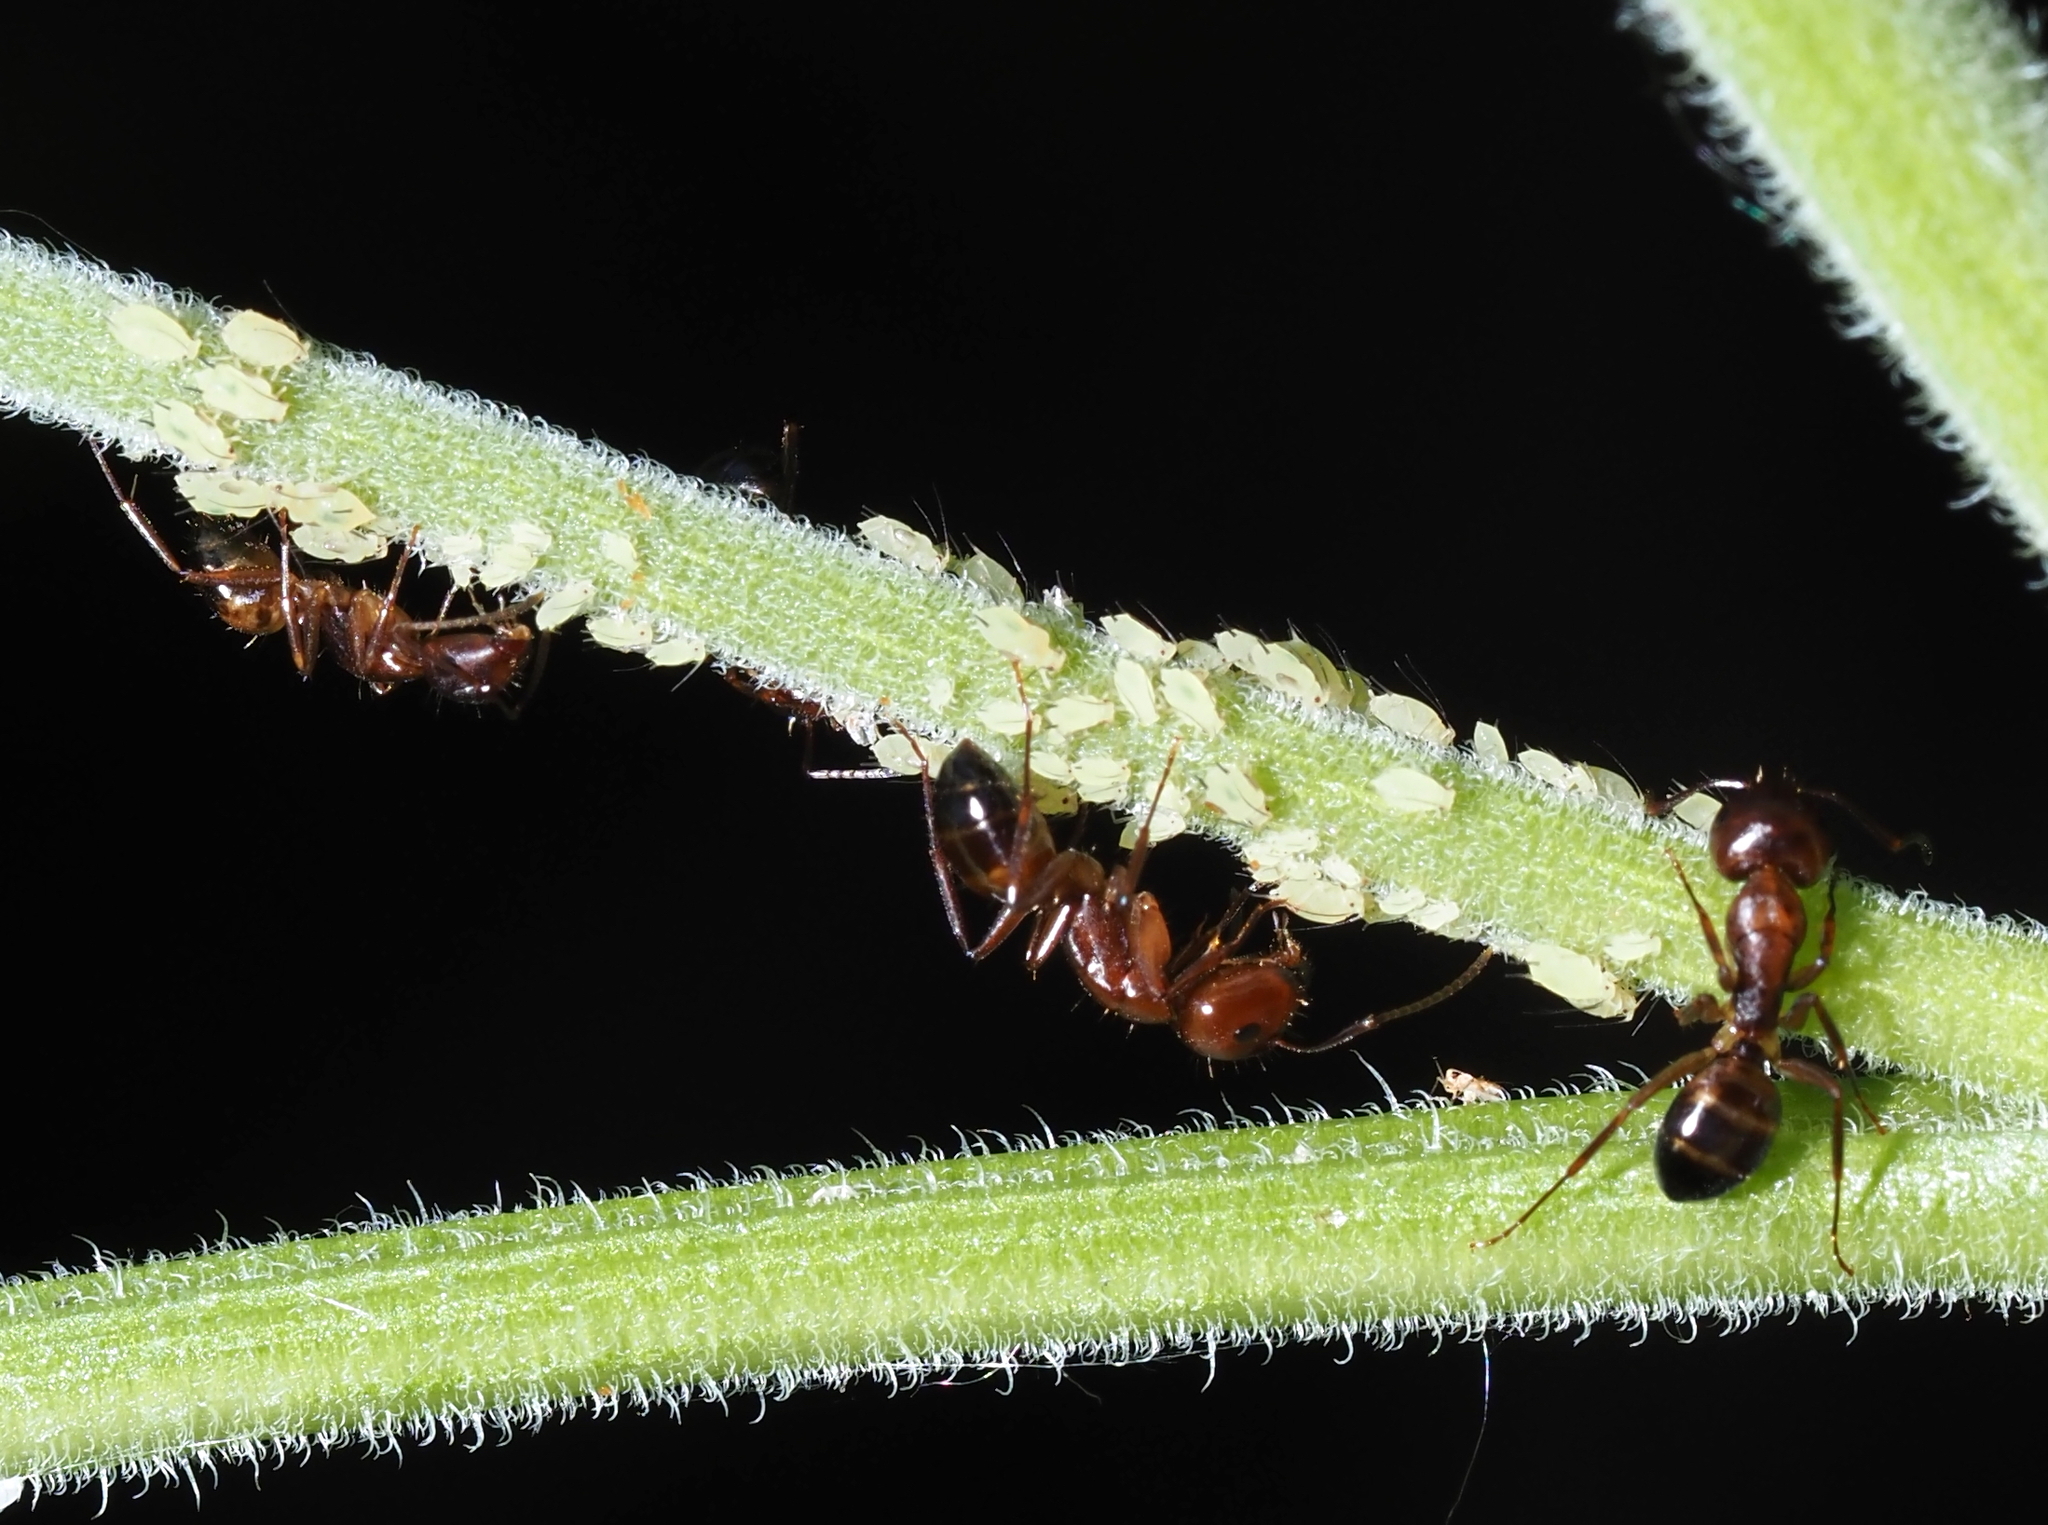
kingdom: Animalia
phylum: Arthropoda
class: Insecta
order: Hymenoptera
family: Formicidae
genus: Camponotus
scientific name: Camponotus subbarbatus
